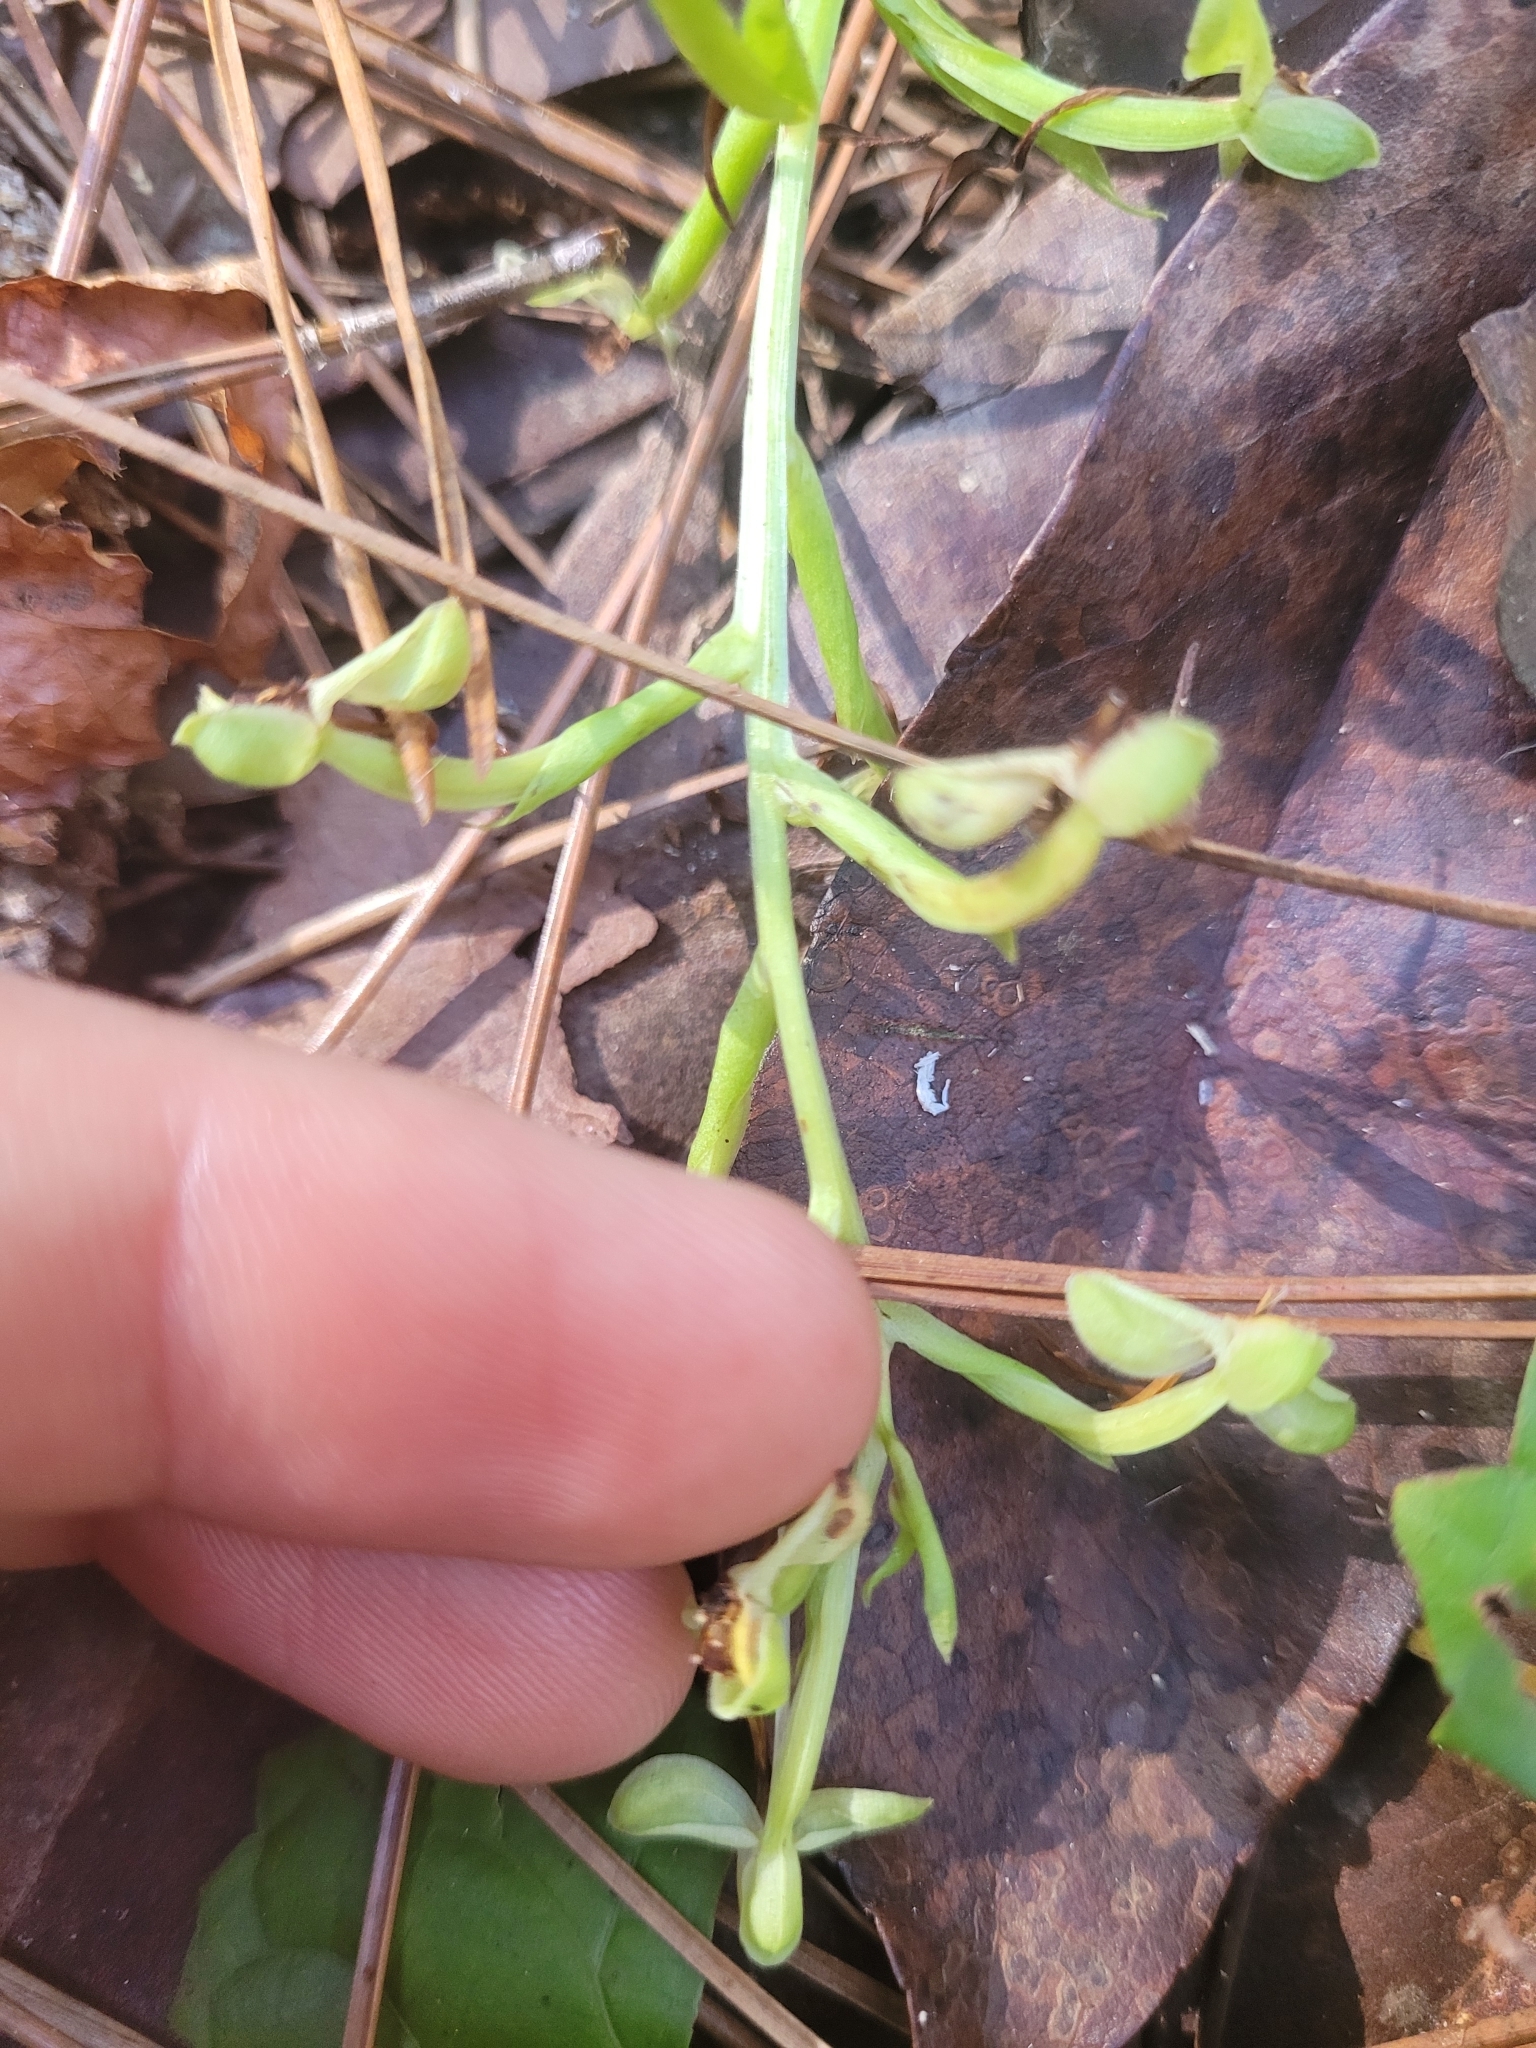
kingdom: Plantae
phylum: Tracheophyta
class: Liliopsida
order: Asparagales
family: Orchidaceae
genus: Habenaria
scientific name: Habenaria floribunda
